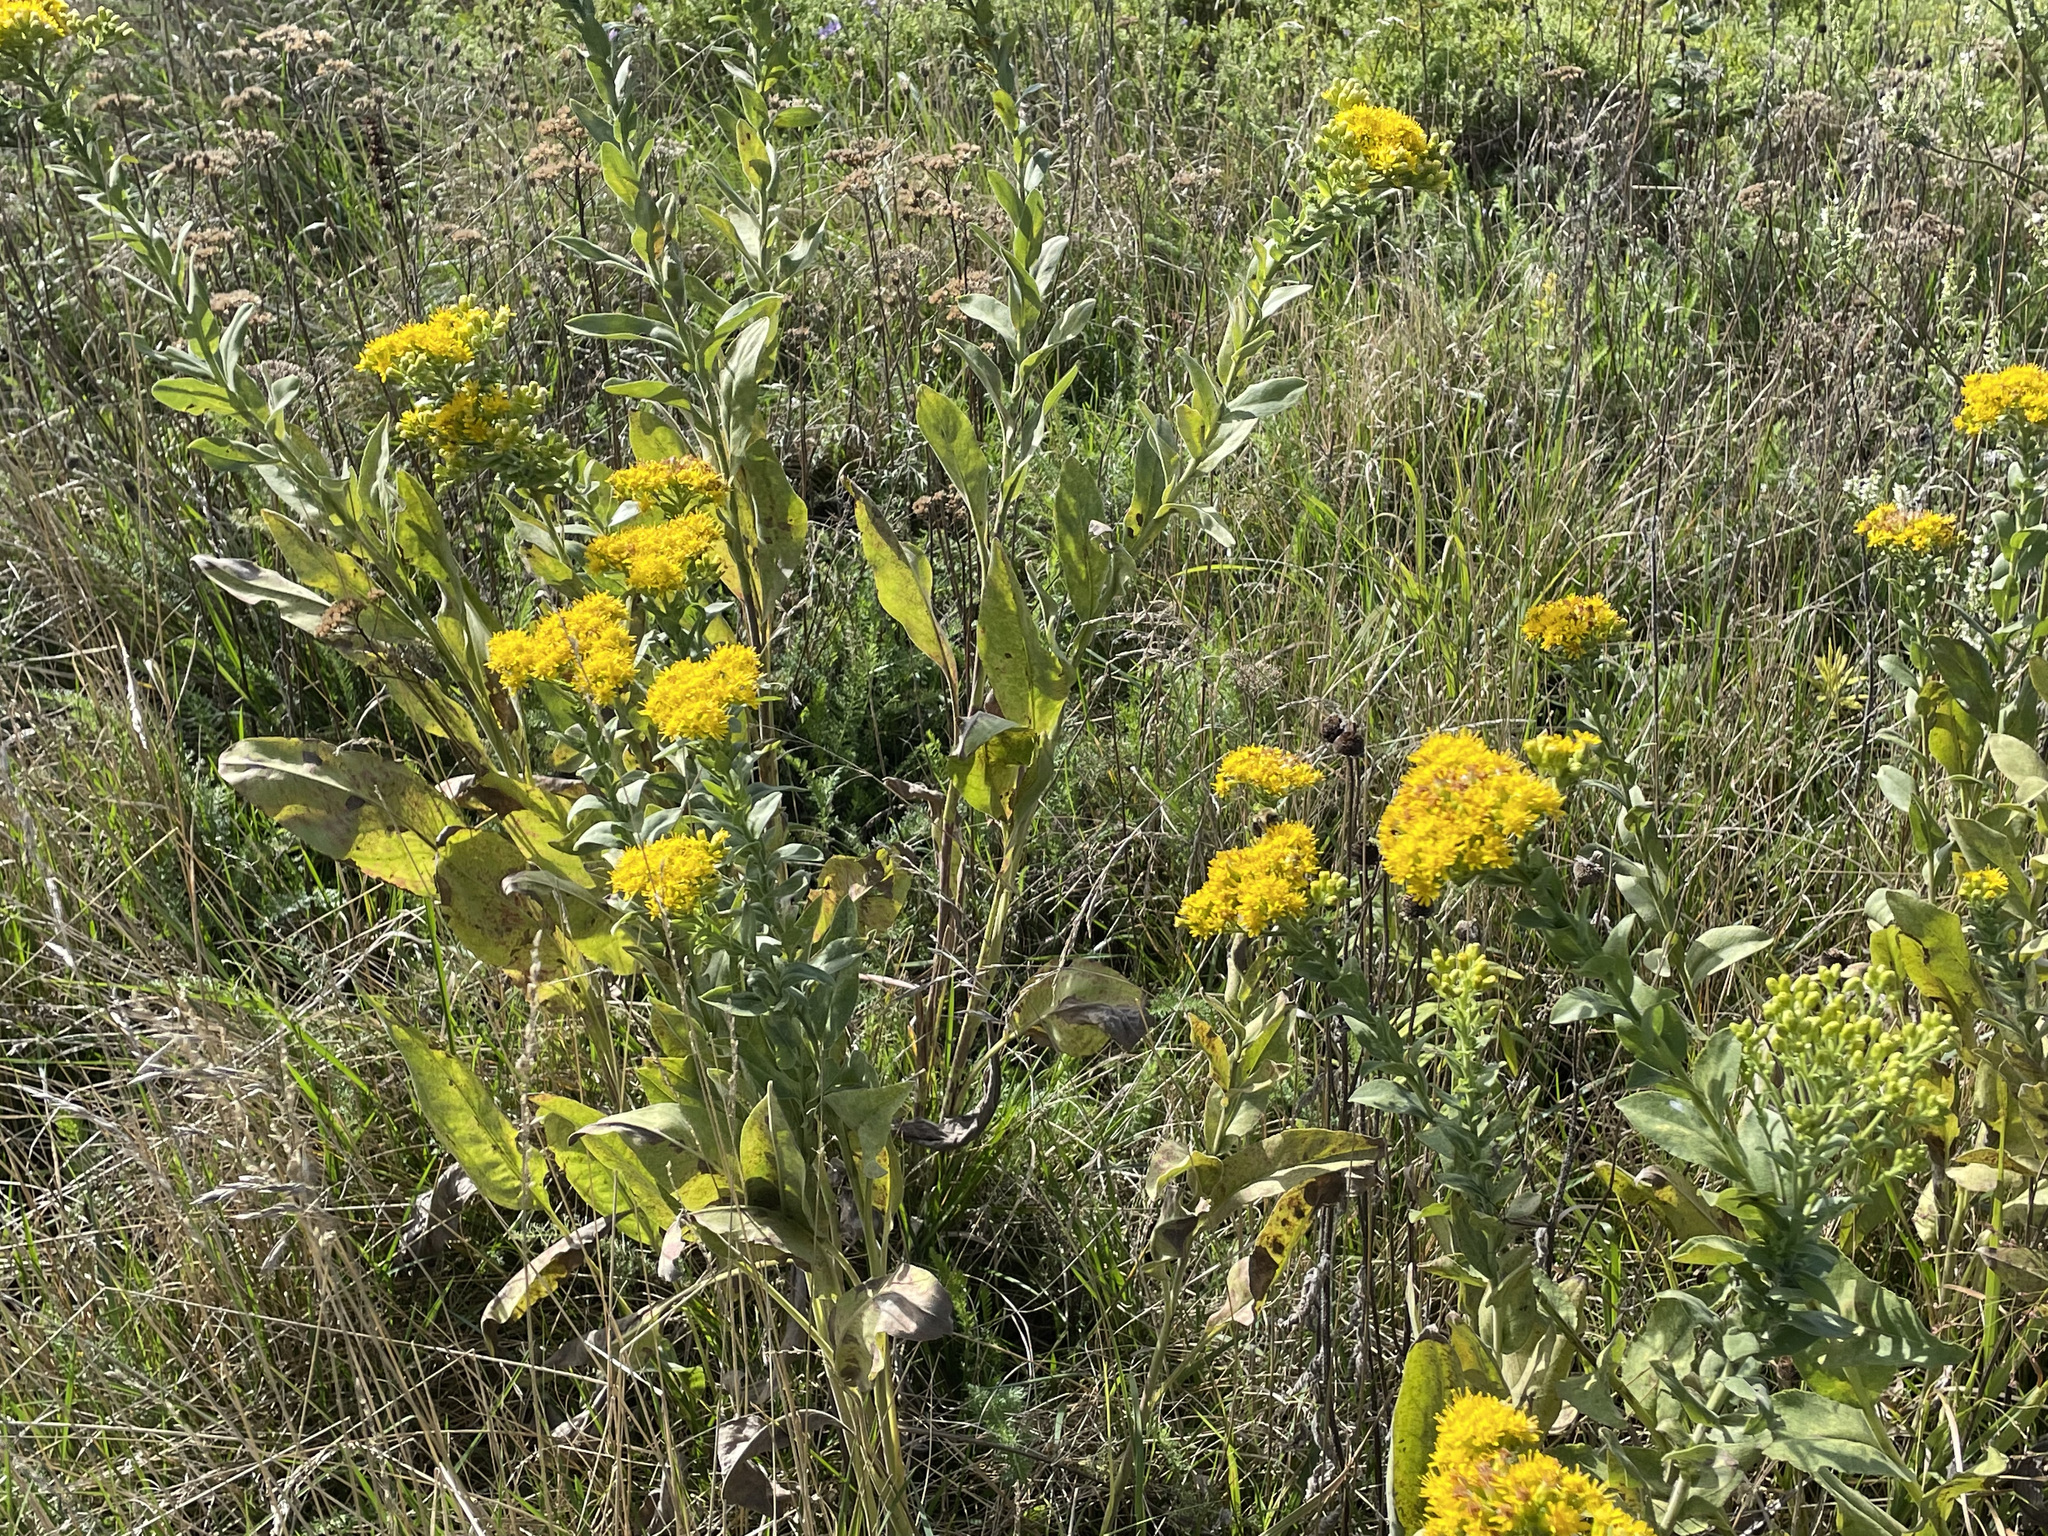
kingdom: Plantae
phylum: Tracheophyta
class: Magnoliopsida
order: Asterales
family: Asteraceae
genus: Solidago
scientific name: Solidago rigida
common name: Rigid goldenrod
